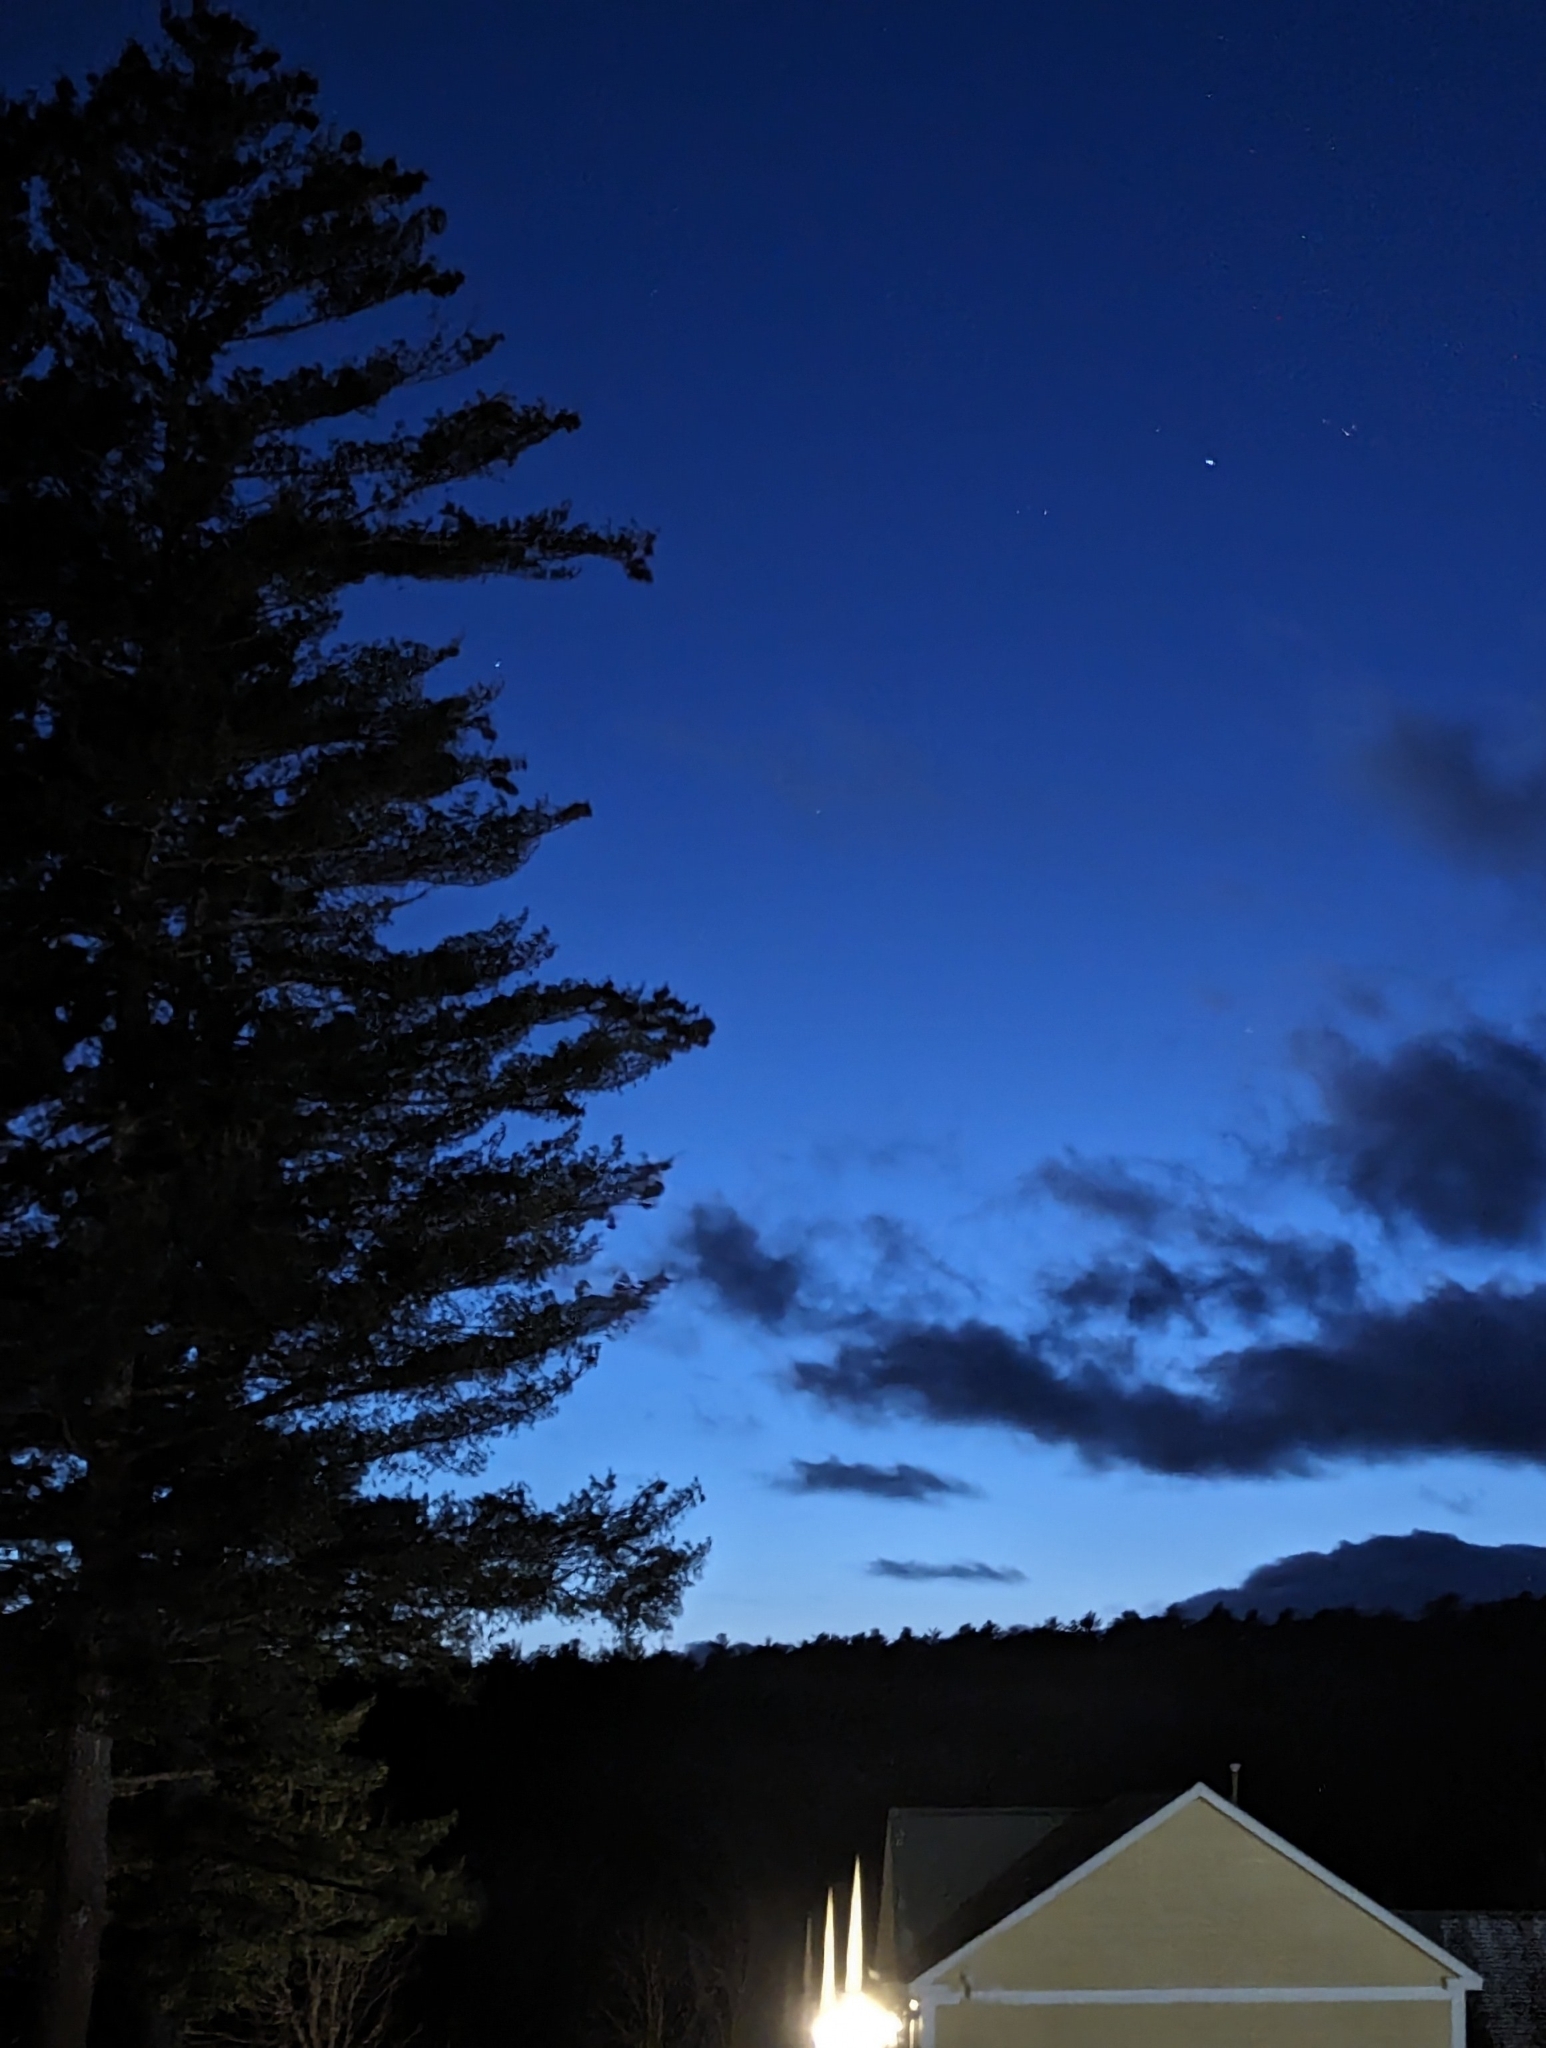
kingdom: Plantae
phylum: Tracheophyta
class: Pinopsida
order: Pinales
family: Pinaceae
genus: Pinus
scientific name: Pinus strobus
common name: Weymouth pine
